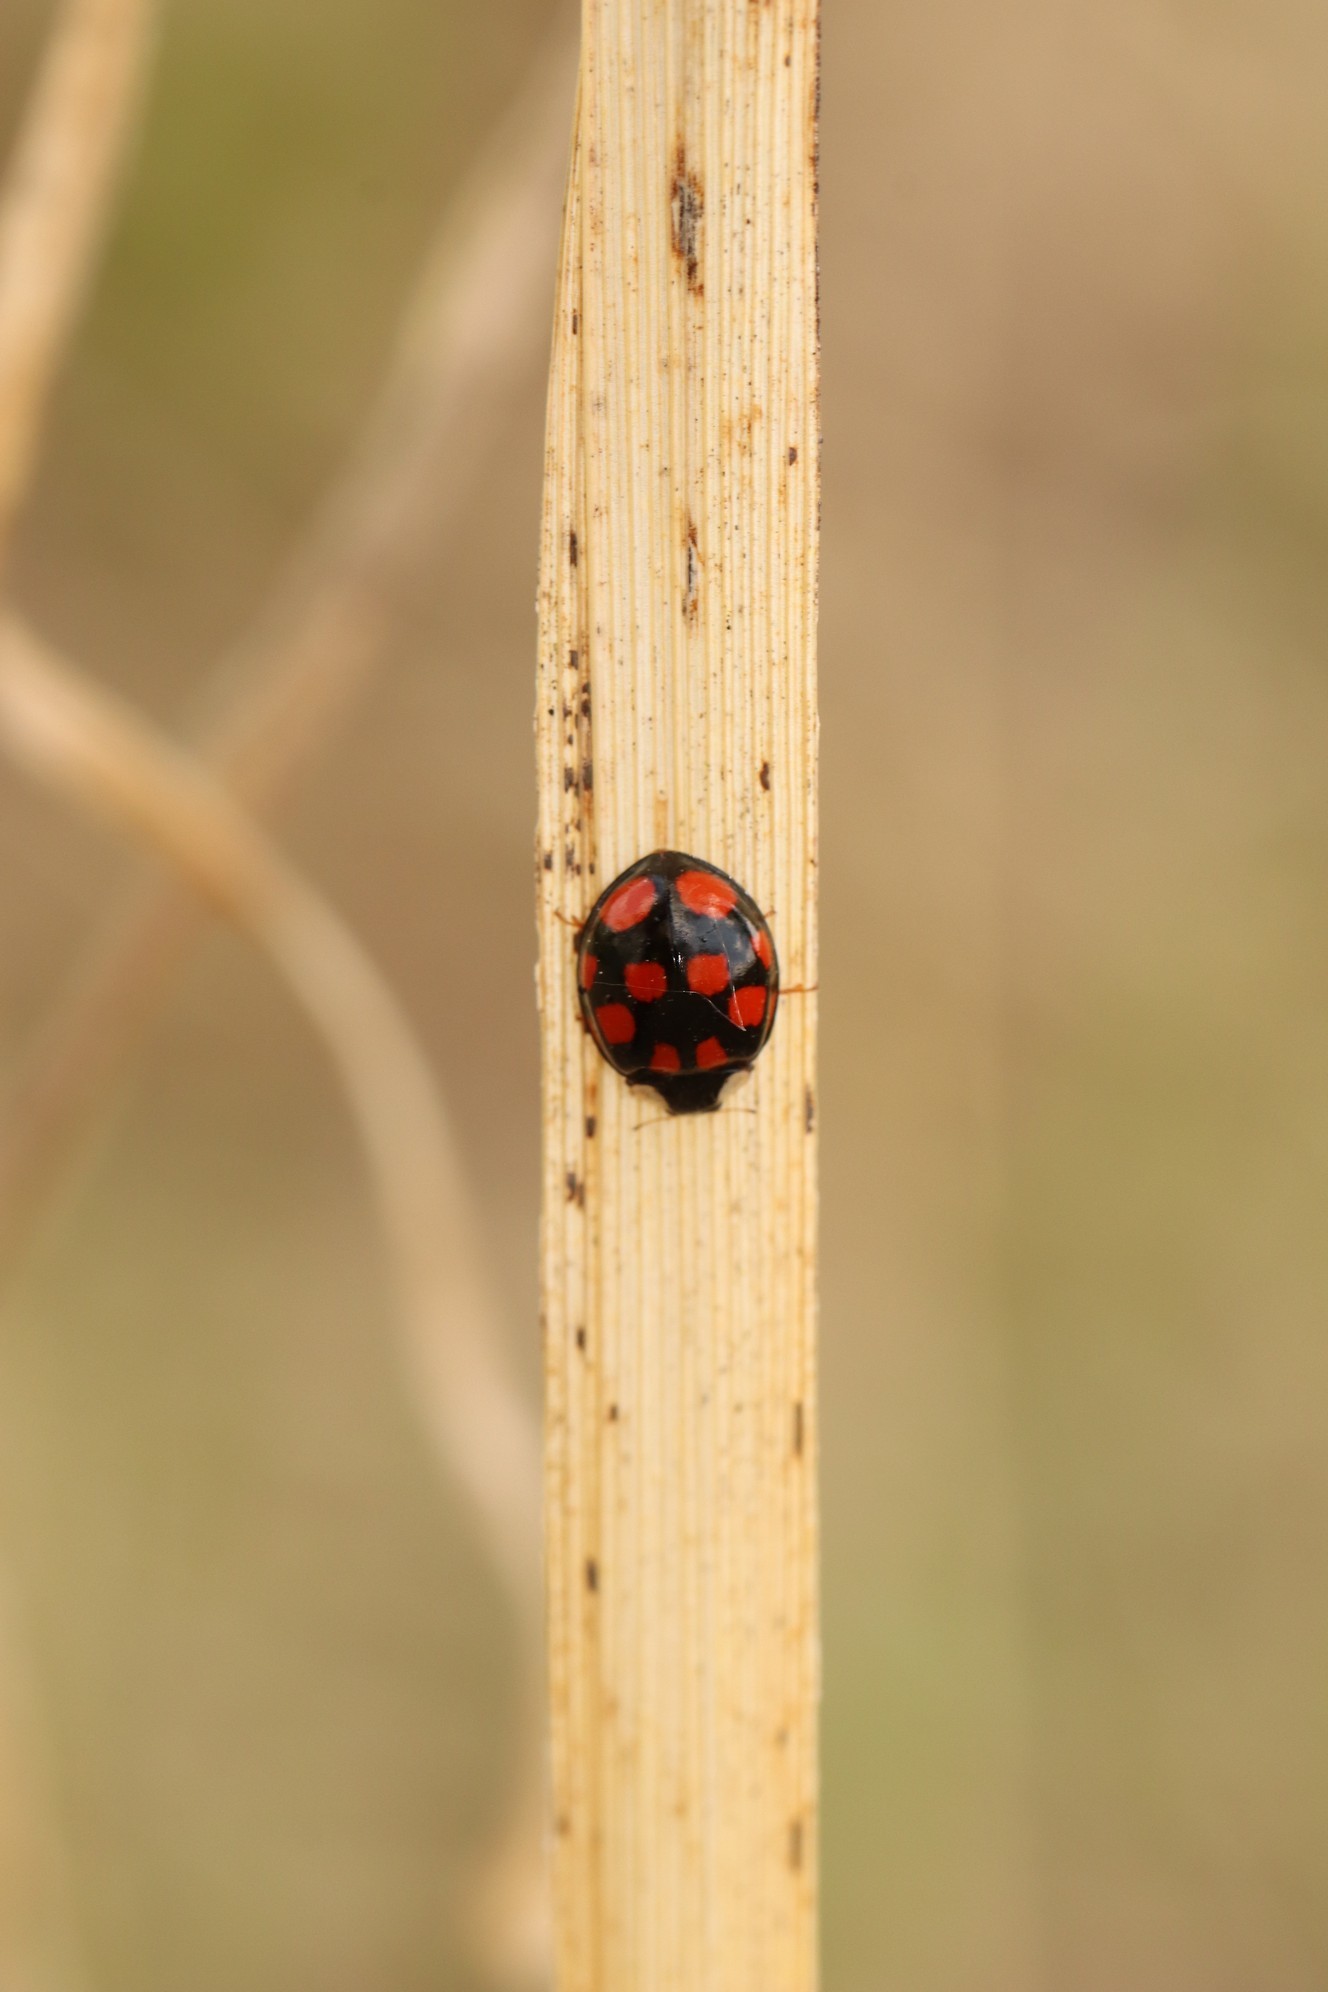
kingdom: Animalia
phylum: Arthropoda
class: Insecta
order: Coleoptera
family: Coccinellidae
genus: Harmonia
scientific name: Harmonia axyridis
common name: Harlequin ladybird
